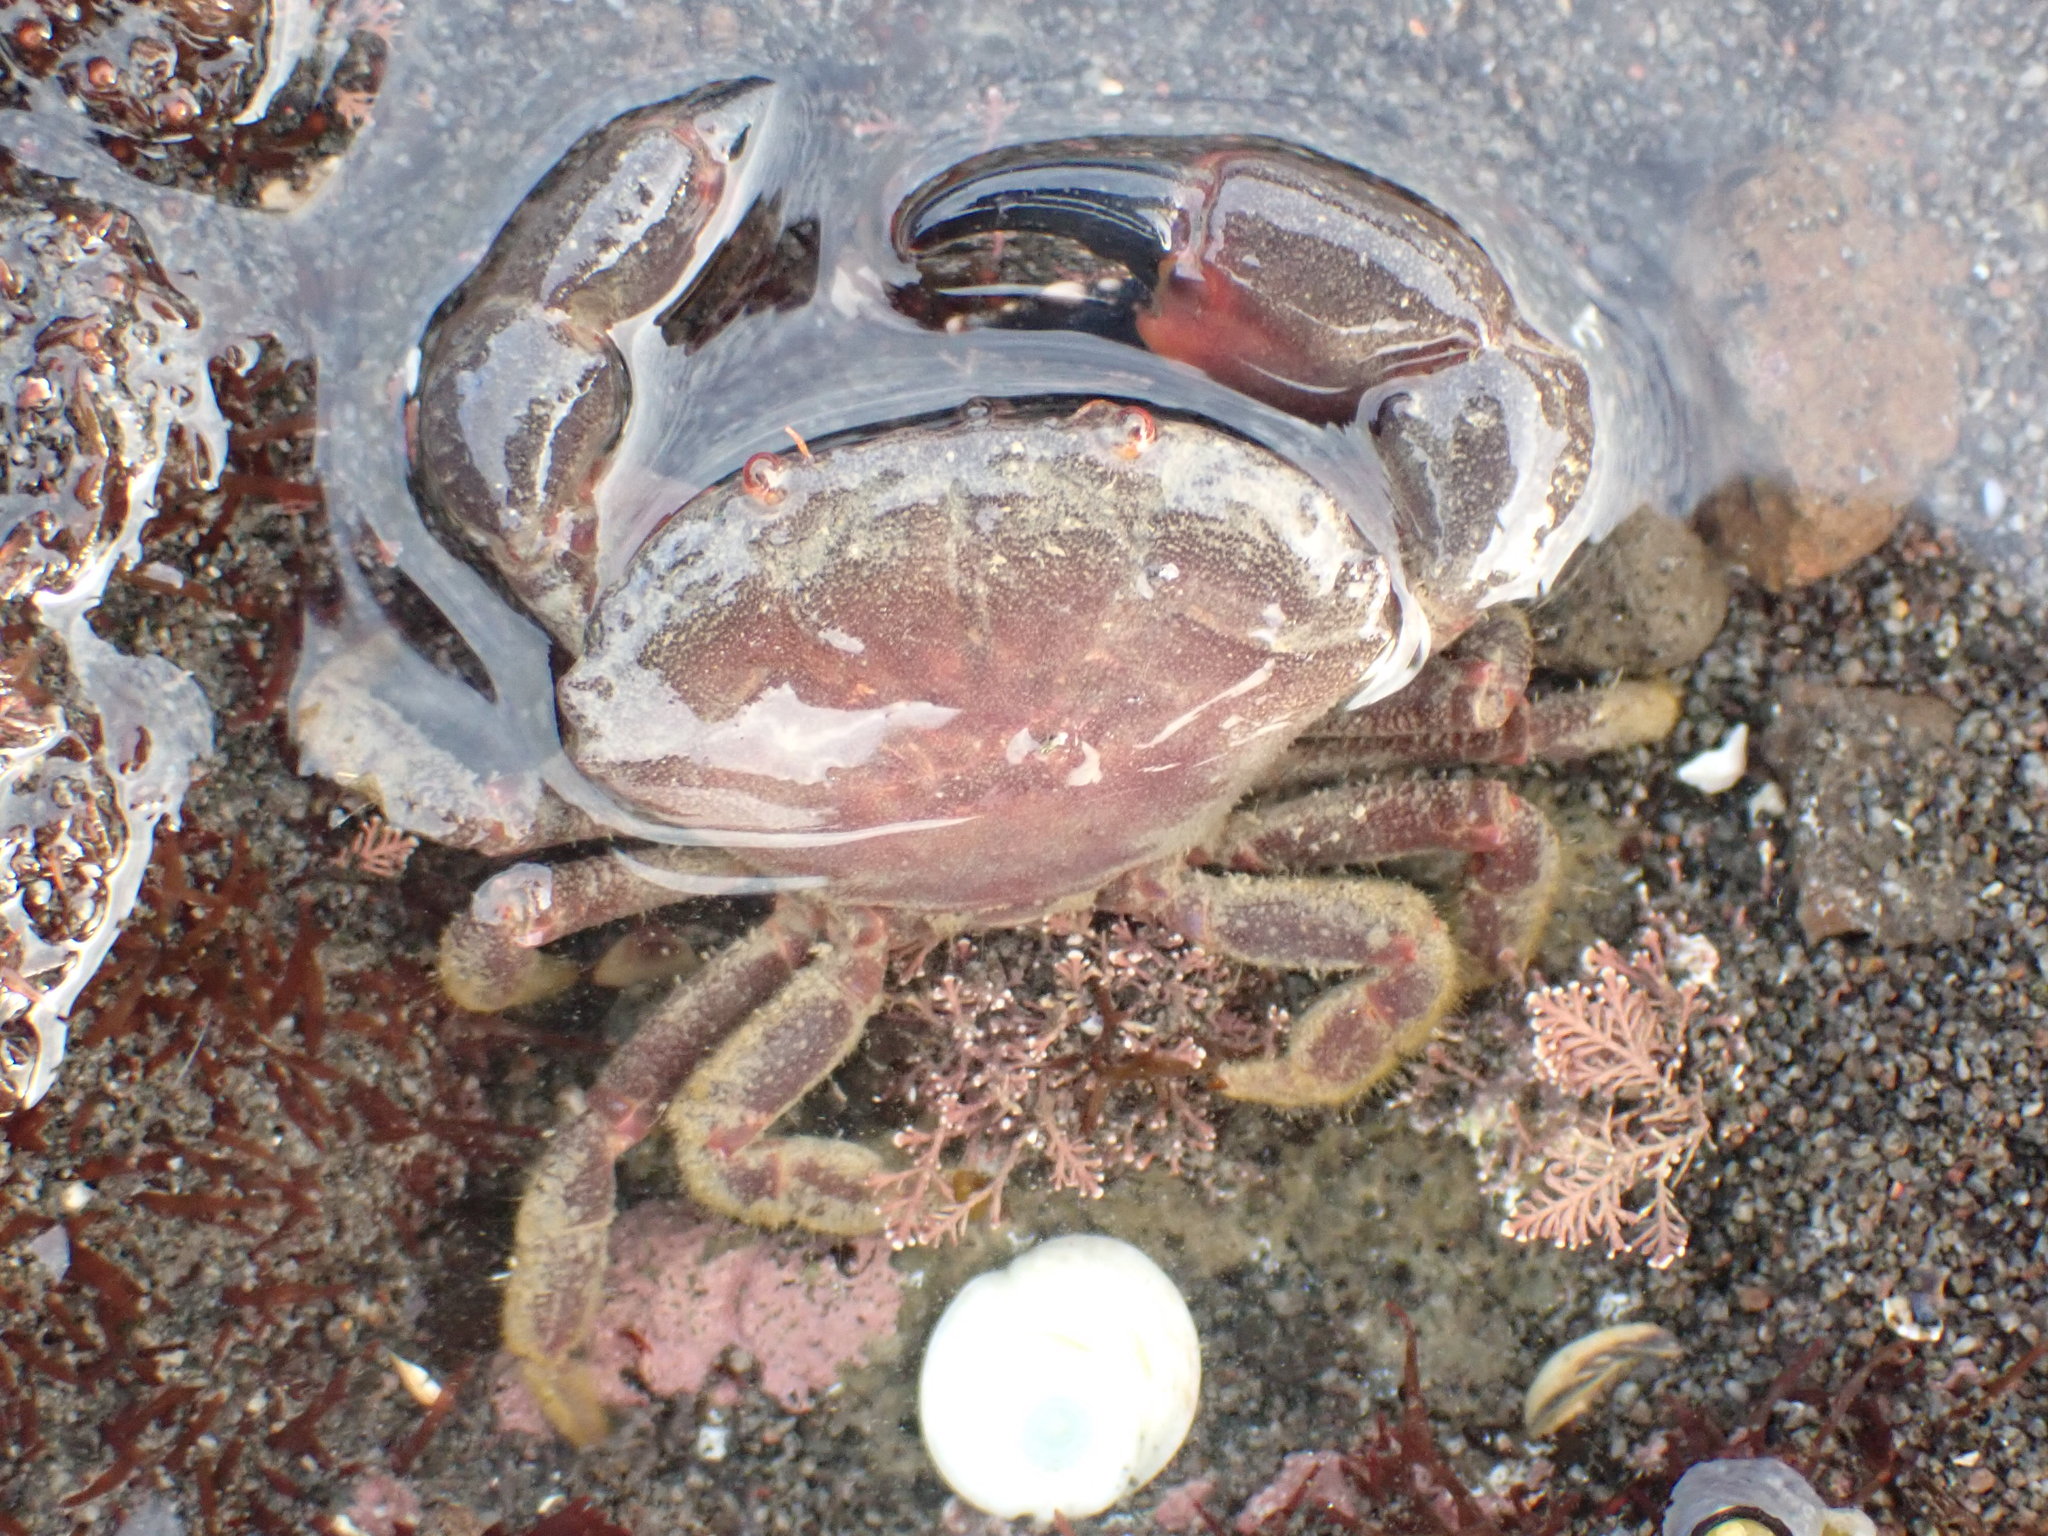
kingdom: Animalia
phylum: Arthropoda
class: Malacostraca
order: Decapoda
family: Oziidae
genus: Ozius
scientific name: Ozius deplanatus
